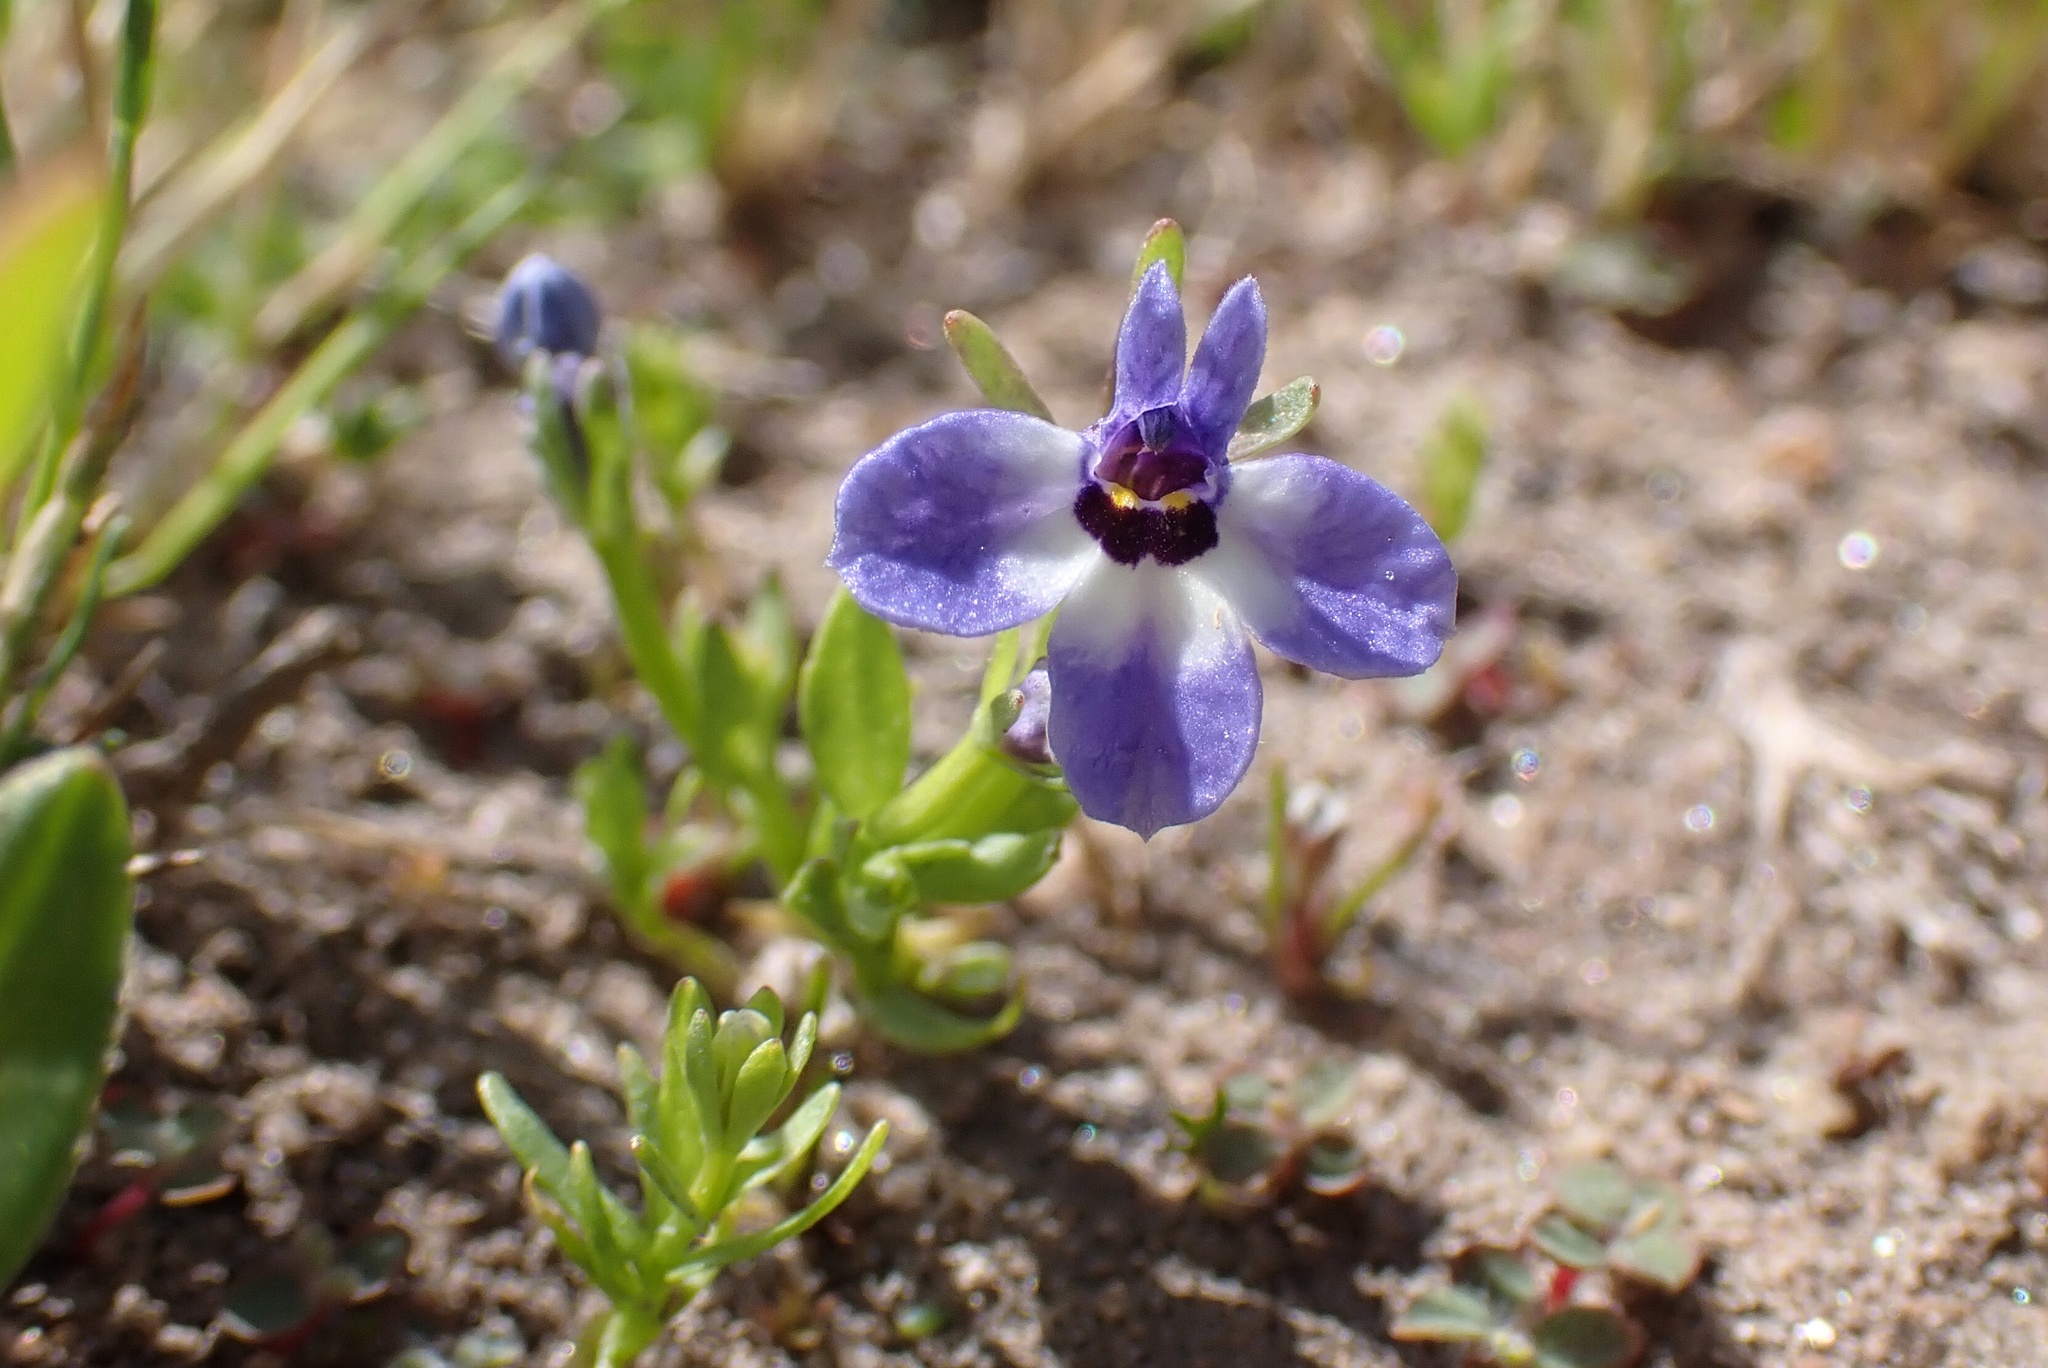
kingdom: Plantae
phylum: Tracheophyta
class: Magnoliopsida
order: Asterales
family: Campanulaceae
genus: Downingia
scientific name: Downingia concolor
